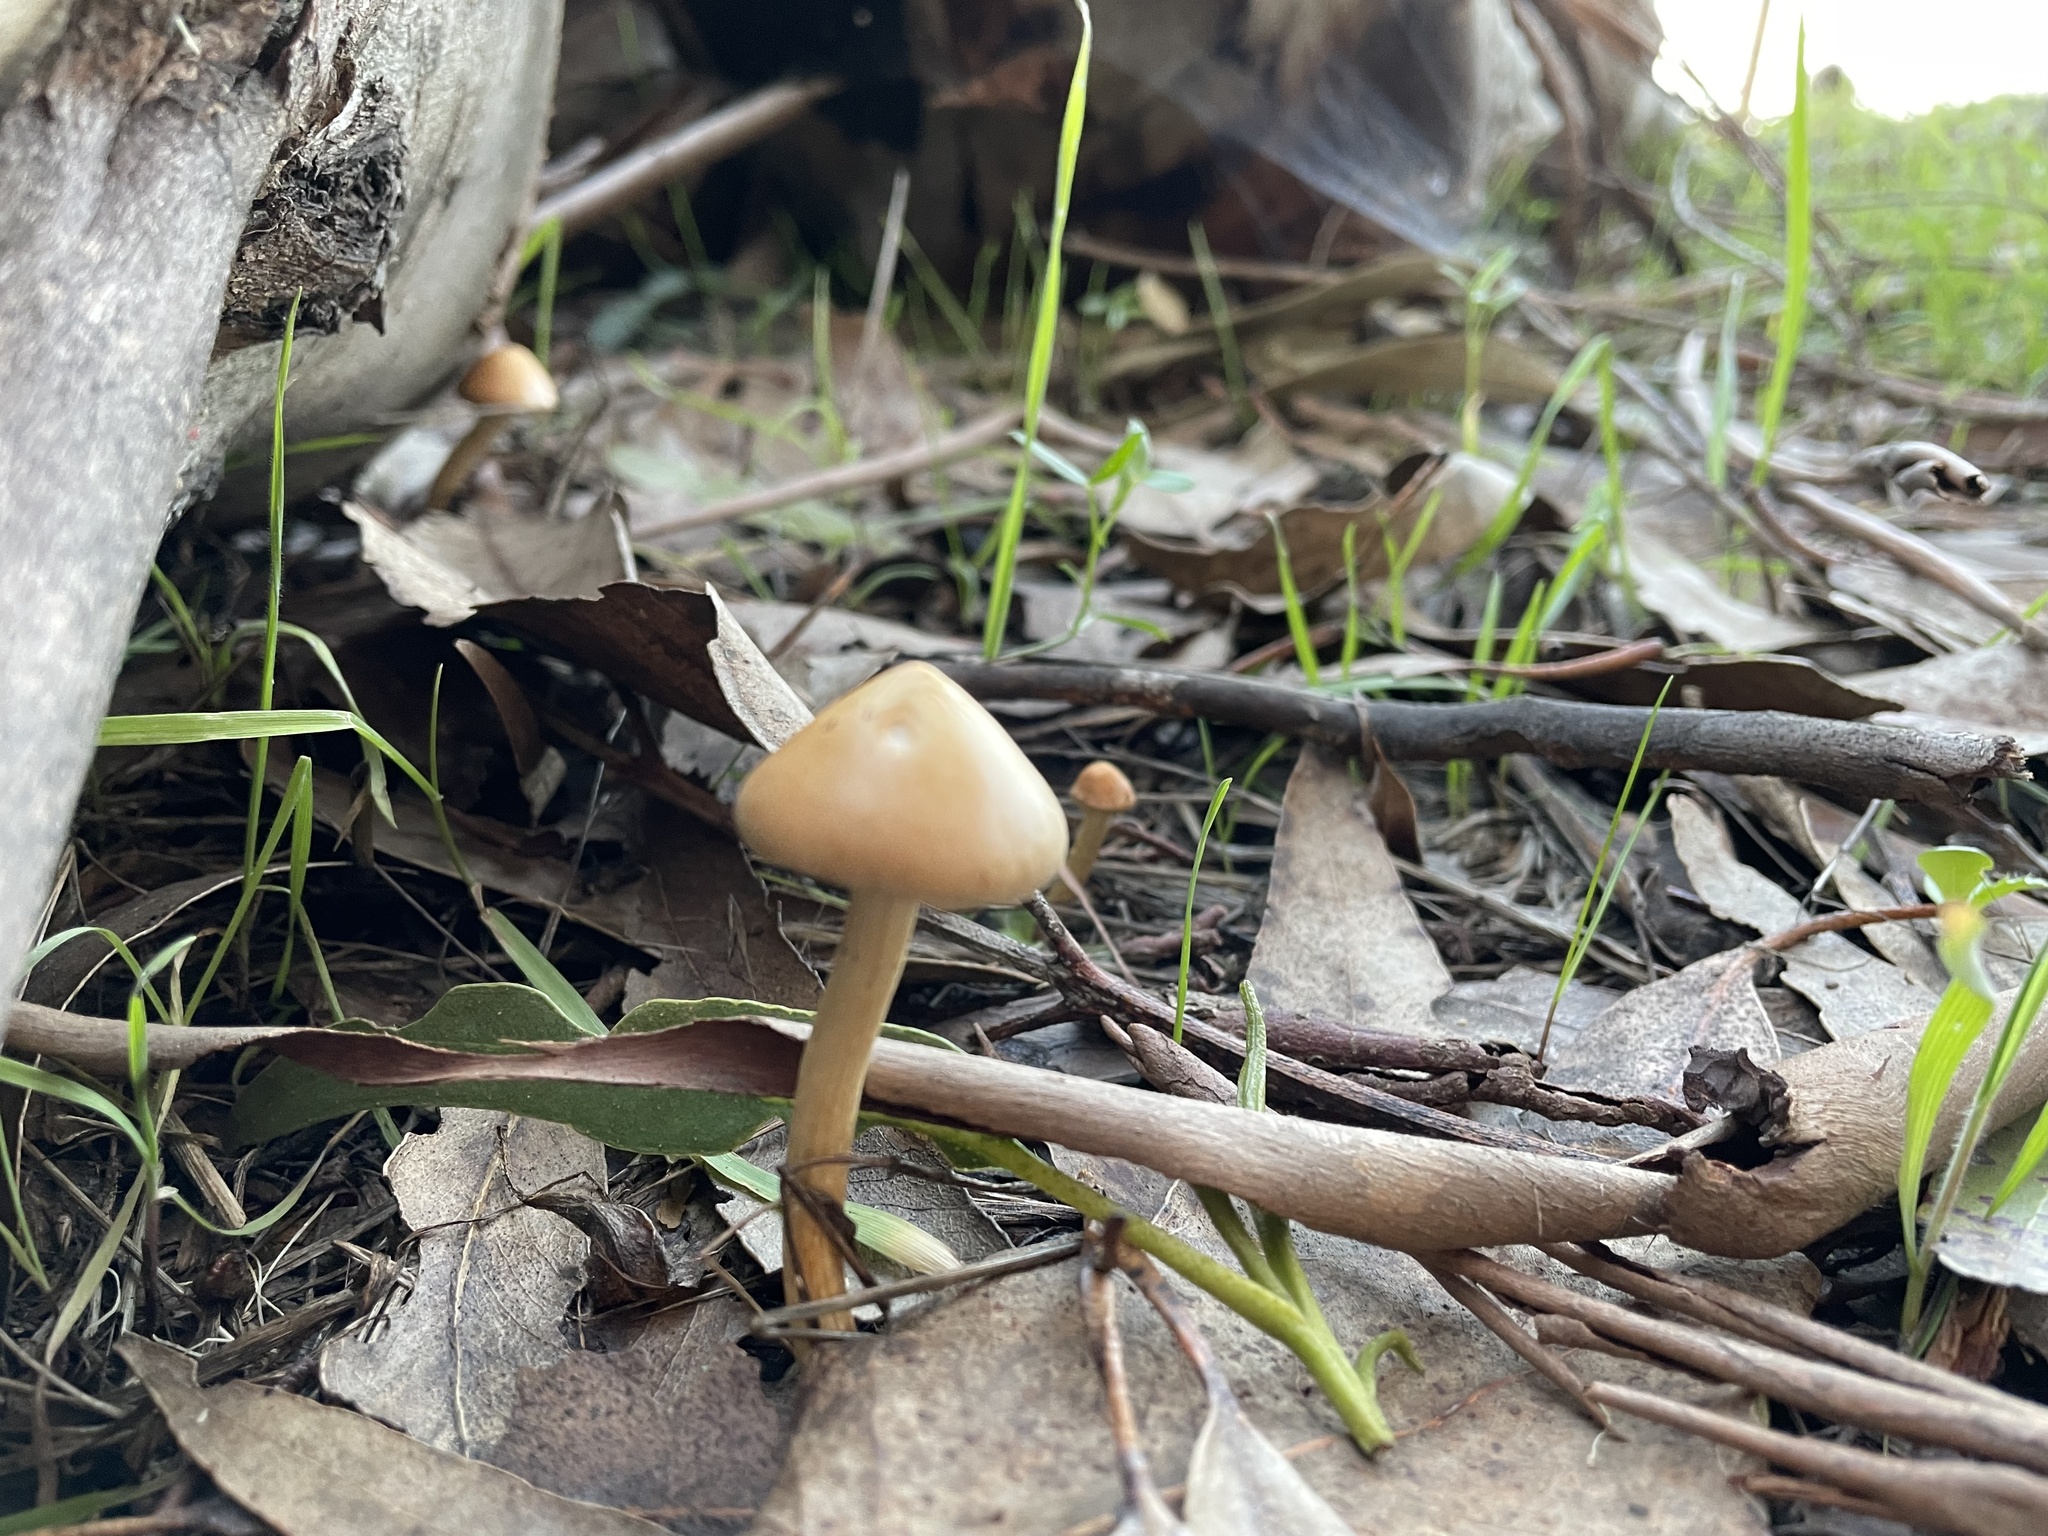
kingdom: Fungi
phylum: Basidiomycota
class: Agaricomycetes
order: Agaricales
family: Strophariaceae
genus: Leratiomyces
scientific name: Leratiomyces percevalii
